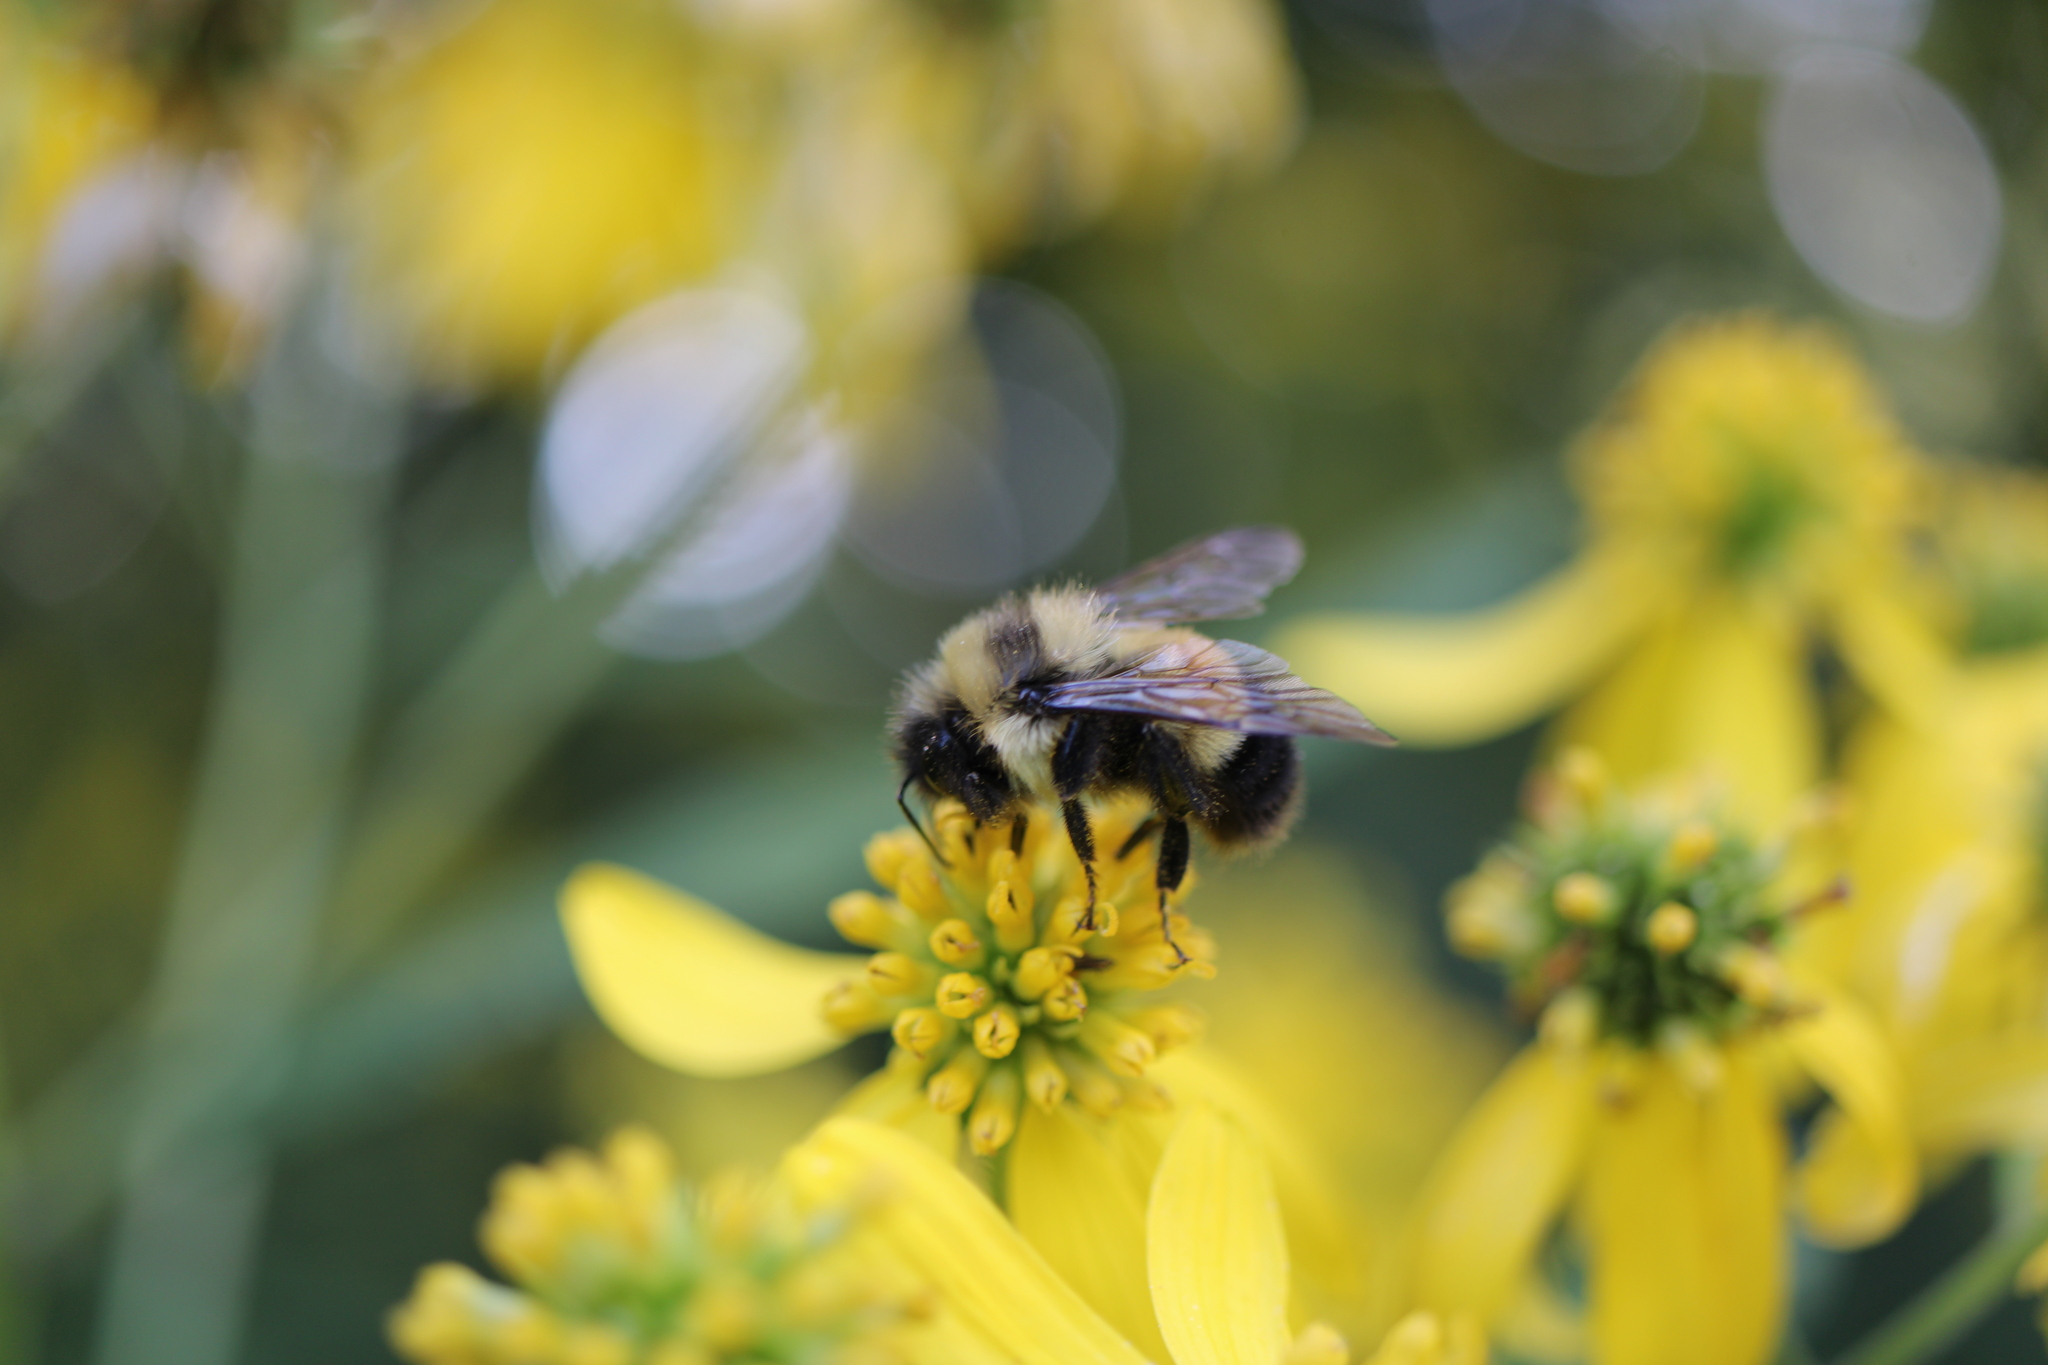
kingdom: Animalia
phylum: Arthropoda
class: Insecta
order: Hymenoptera
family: Apidae
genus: Bombus
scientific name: Bombus affinis
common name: Rusty patched bumble bee
